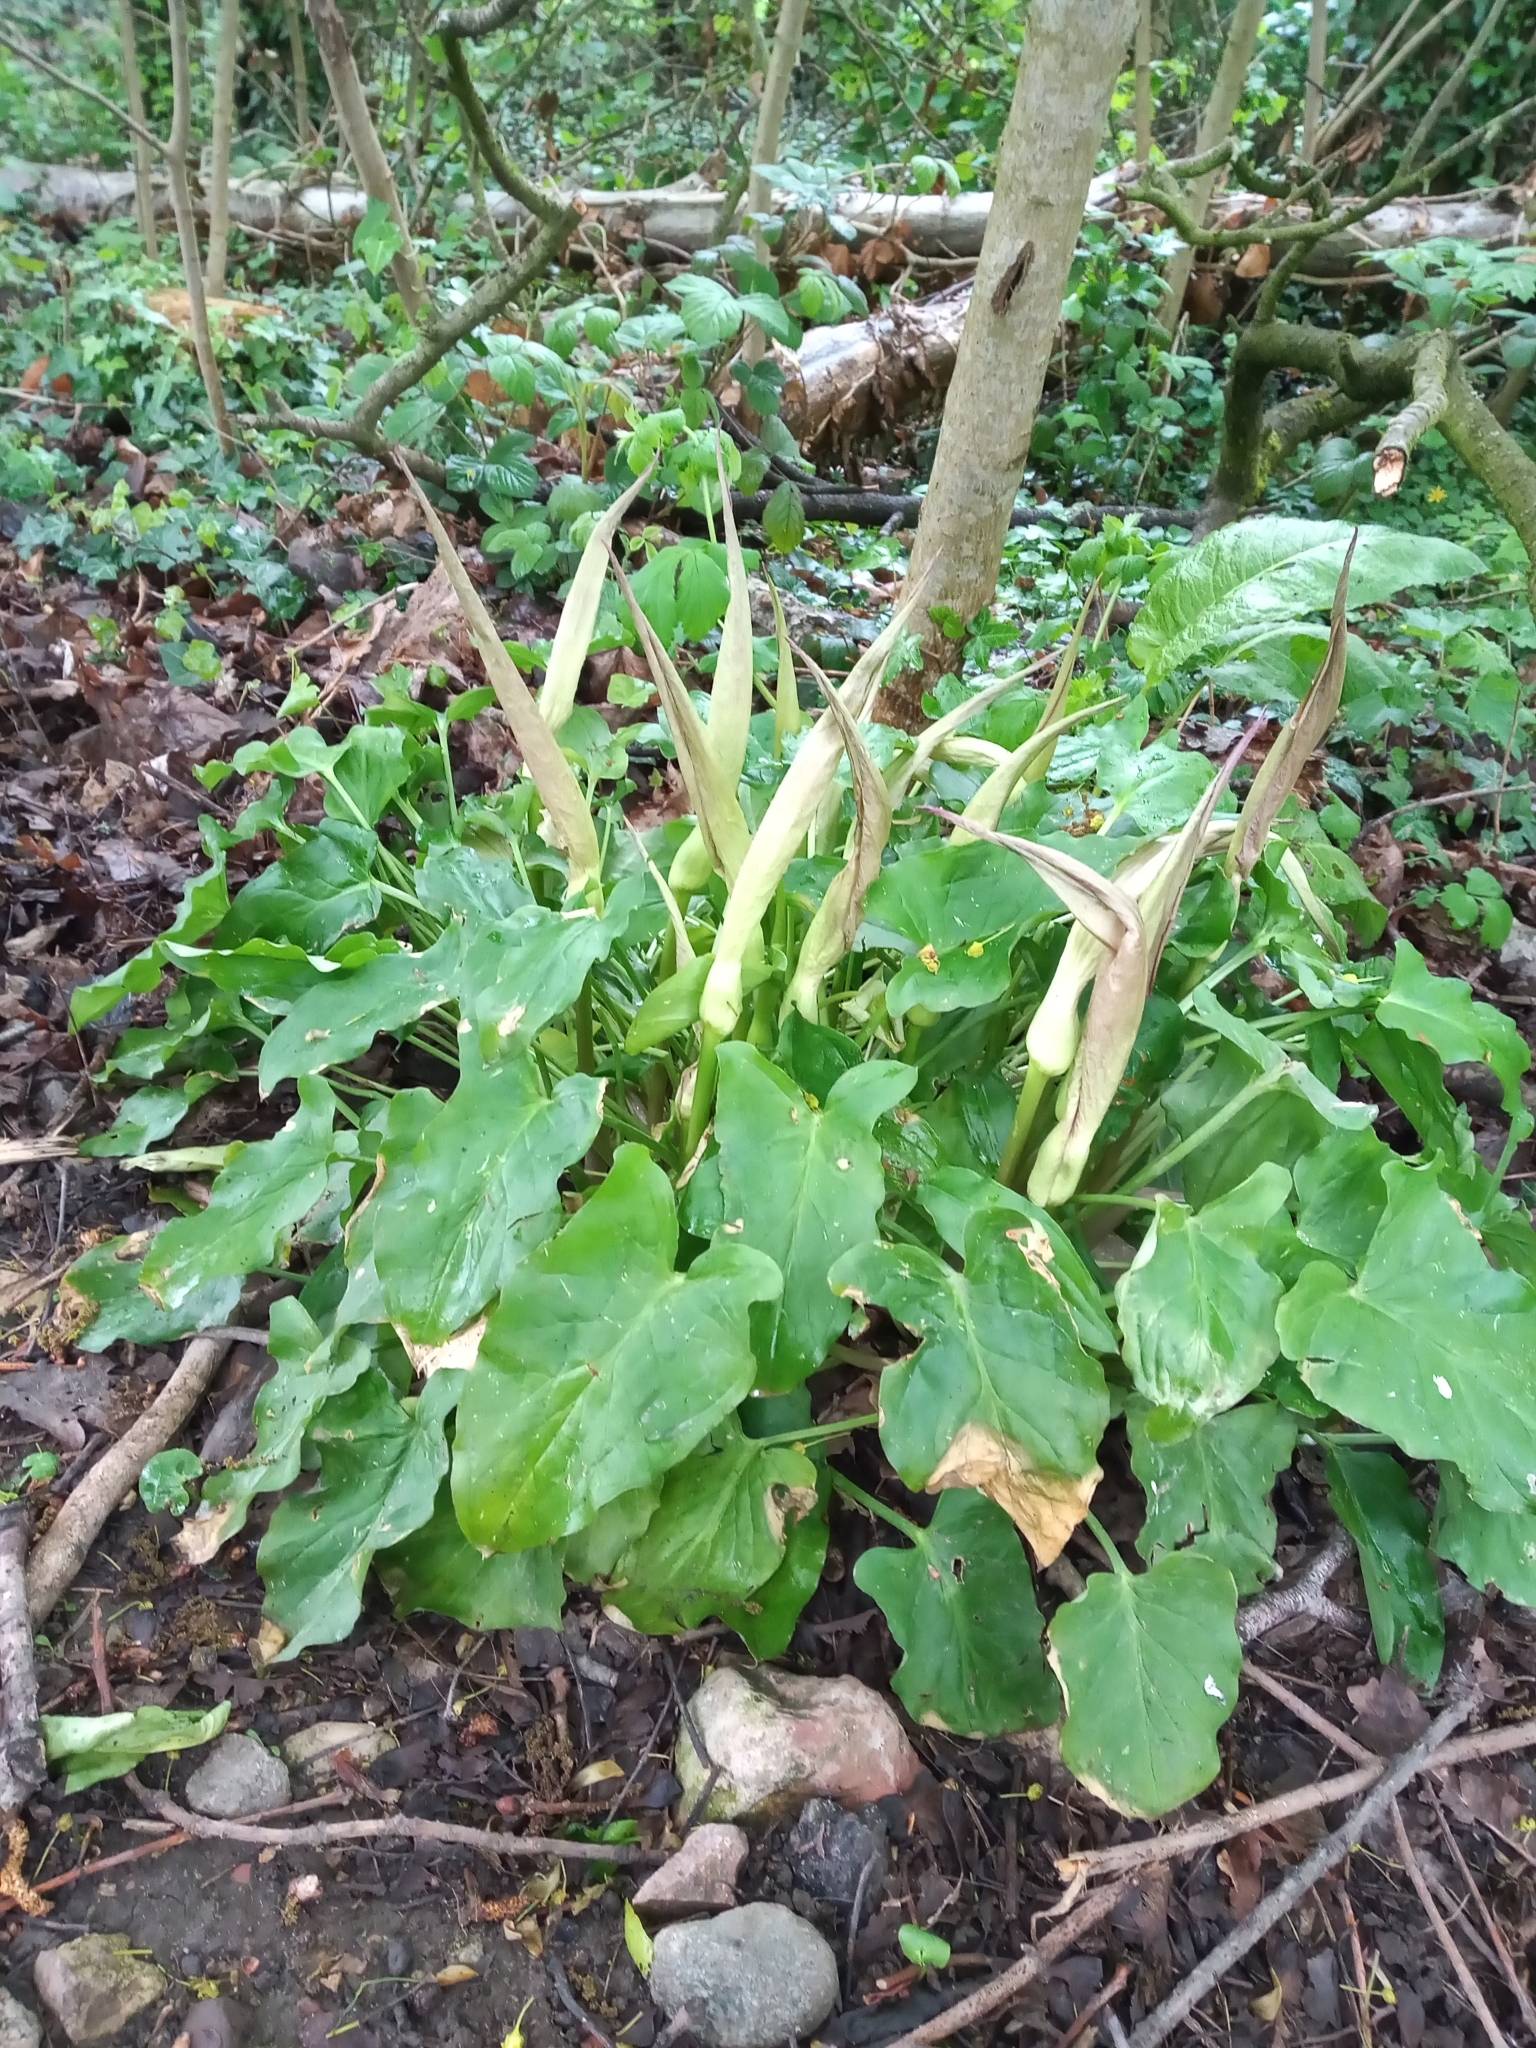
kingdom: Plantae
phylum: Tracheophyta
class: Liliopsida
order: Alismatales
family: Araceae
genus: Arum
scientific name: Arum maculatum
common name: Lords-and-ladies
